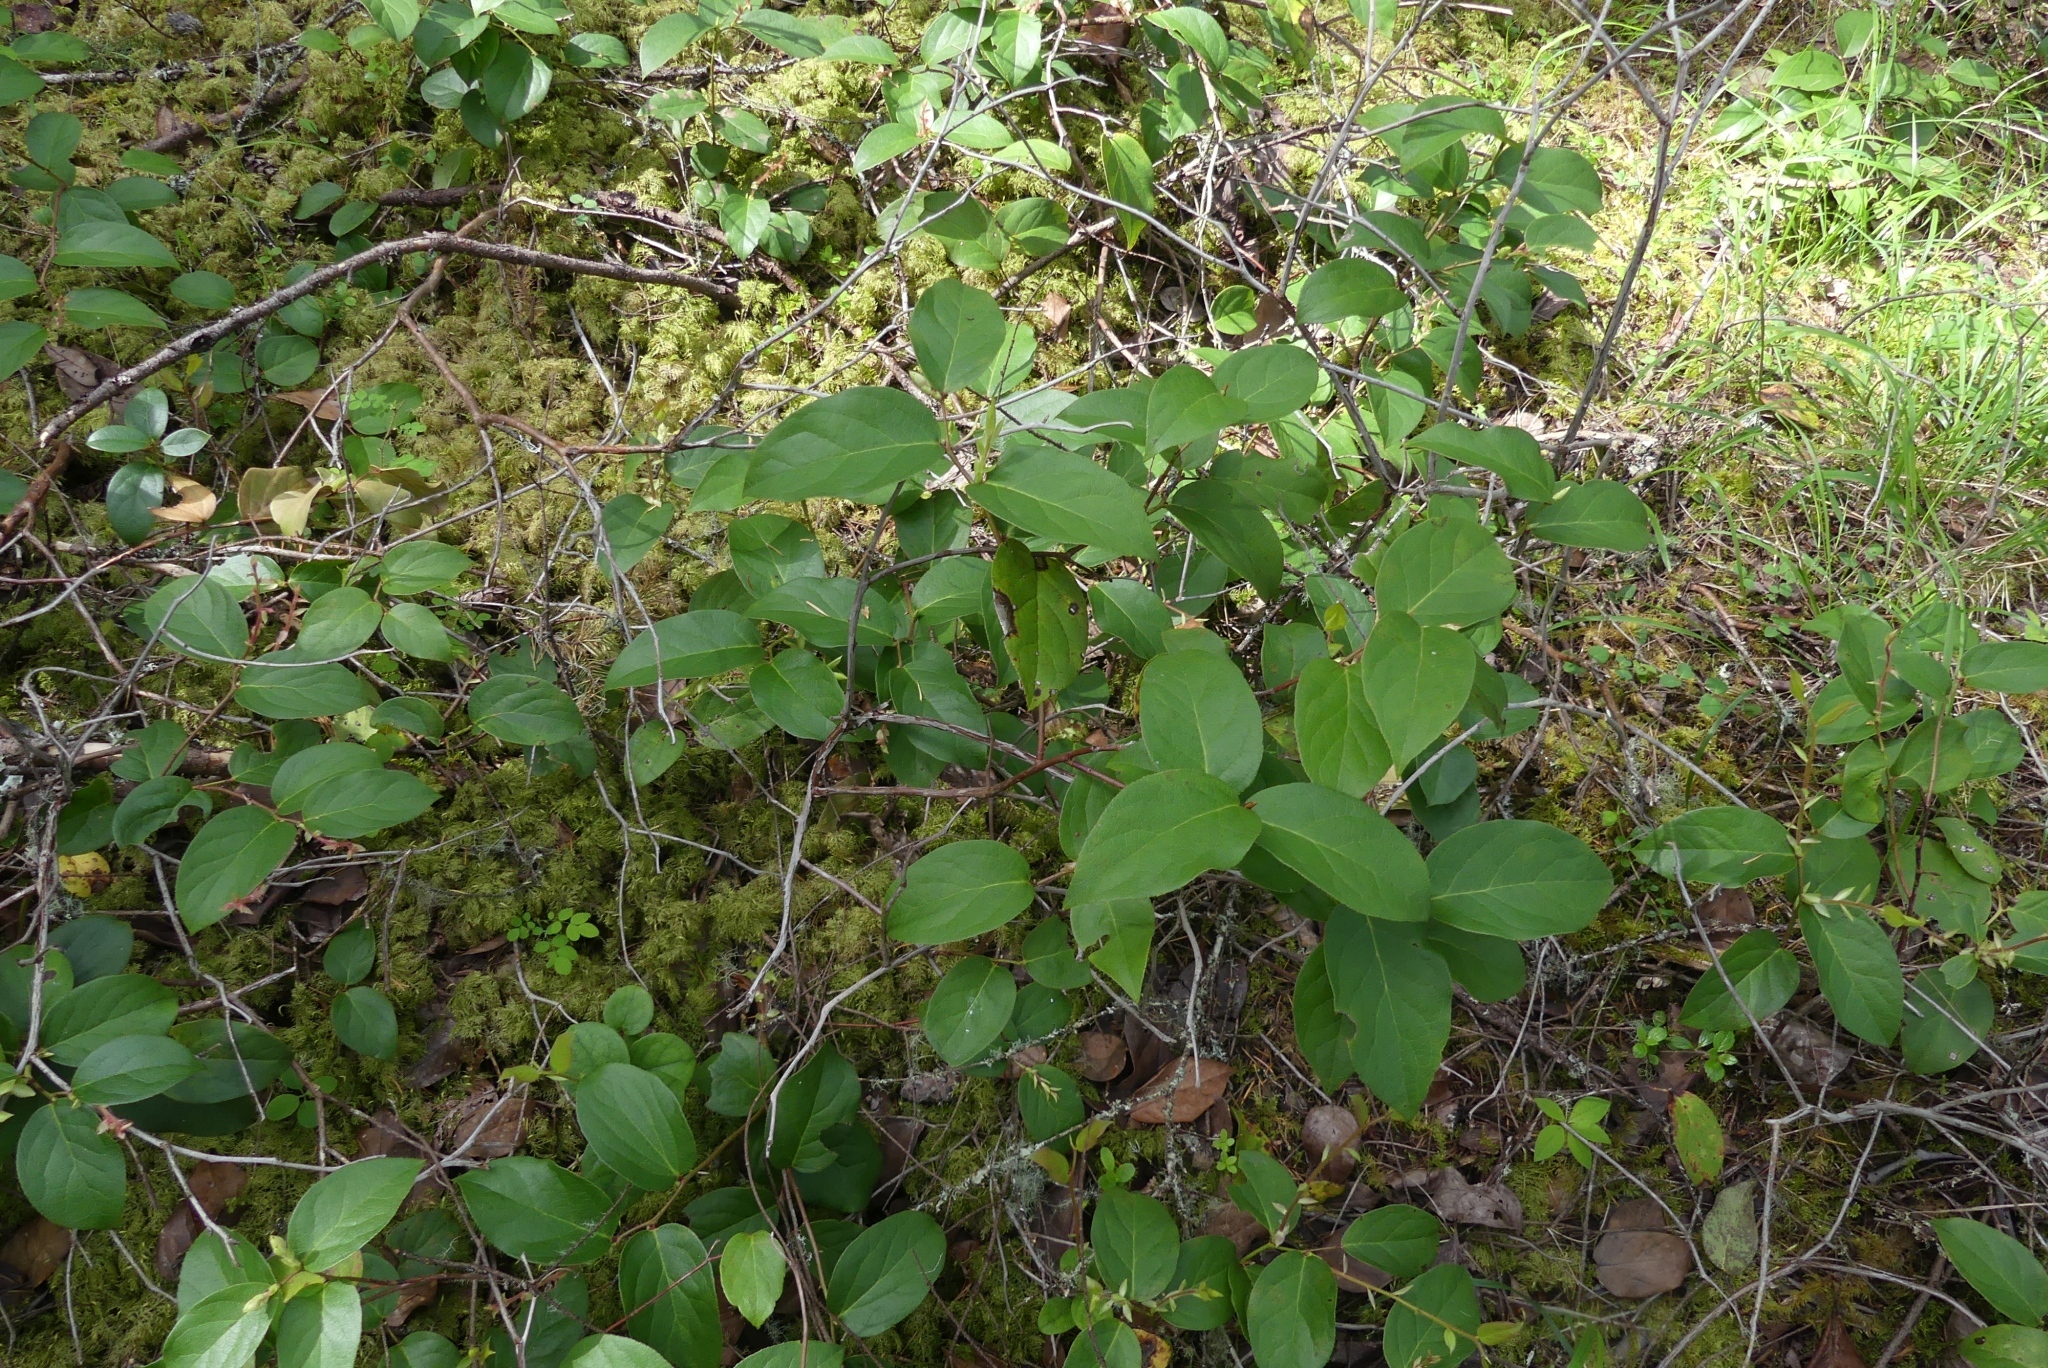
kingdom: Plantae
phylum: Tracheophyta
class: Magnoliopsida
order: Ericales
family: Ericaceae
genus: Gaultheria
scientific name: Gaultheria shallon
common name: Shallon
